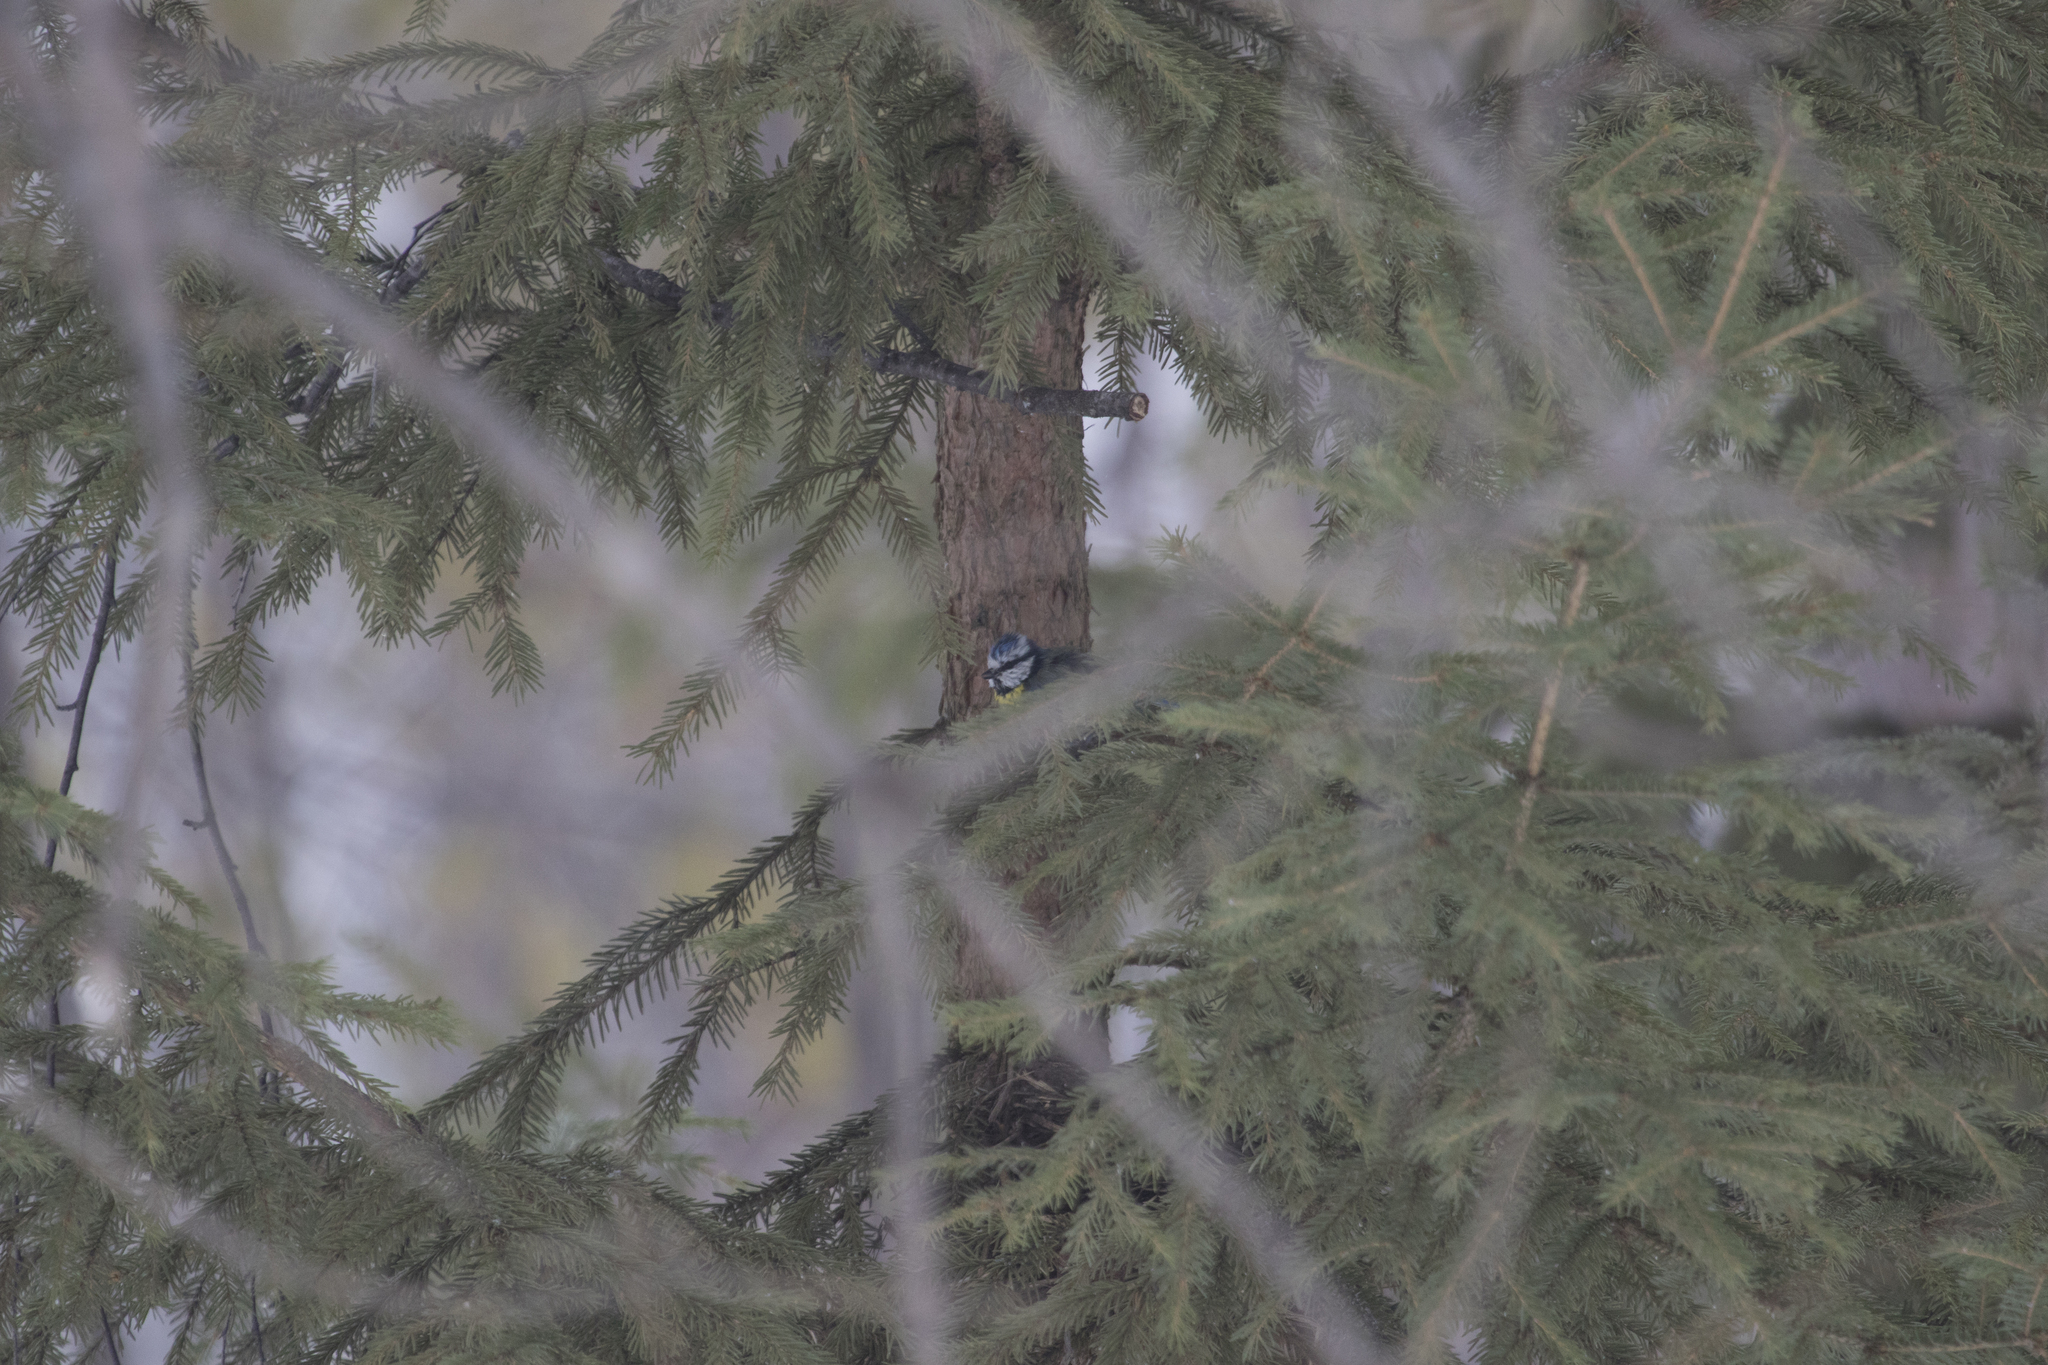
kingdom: Animalia
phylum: Chordata
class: Aves
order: Passeriformes
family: Paridae
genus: Cyanistes
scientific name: Cyanistes caeruleus
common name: Eurasian blue tit
